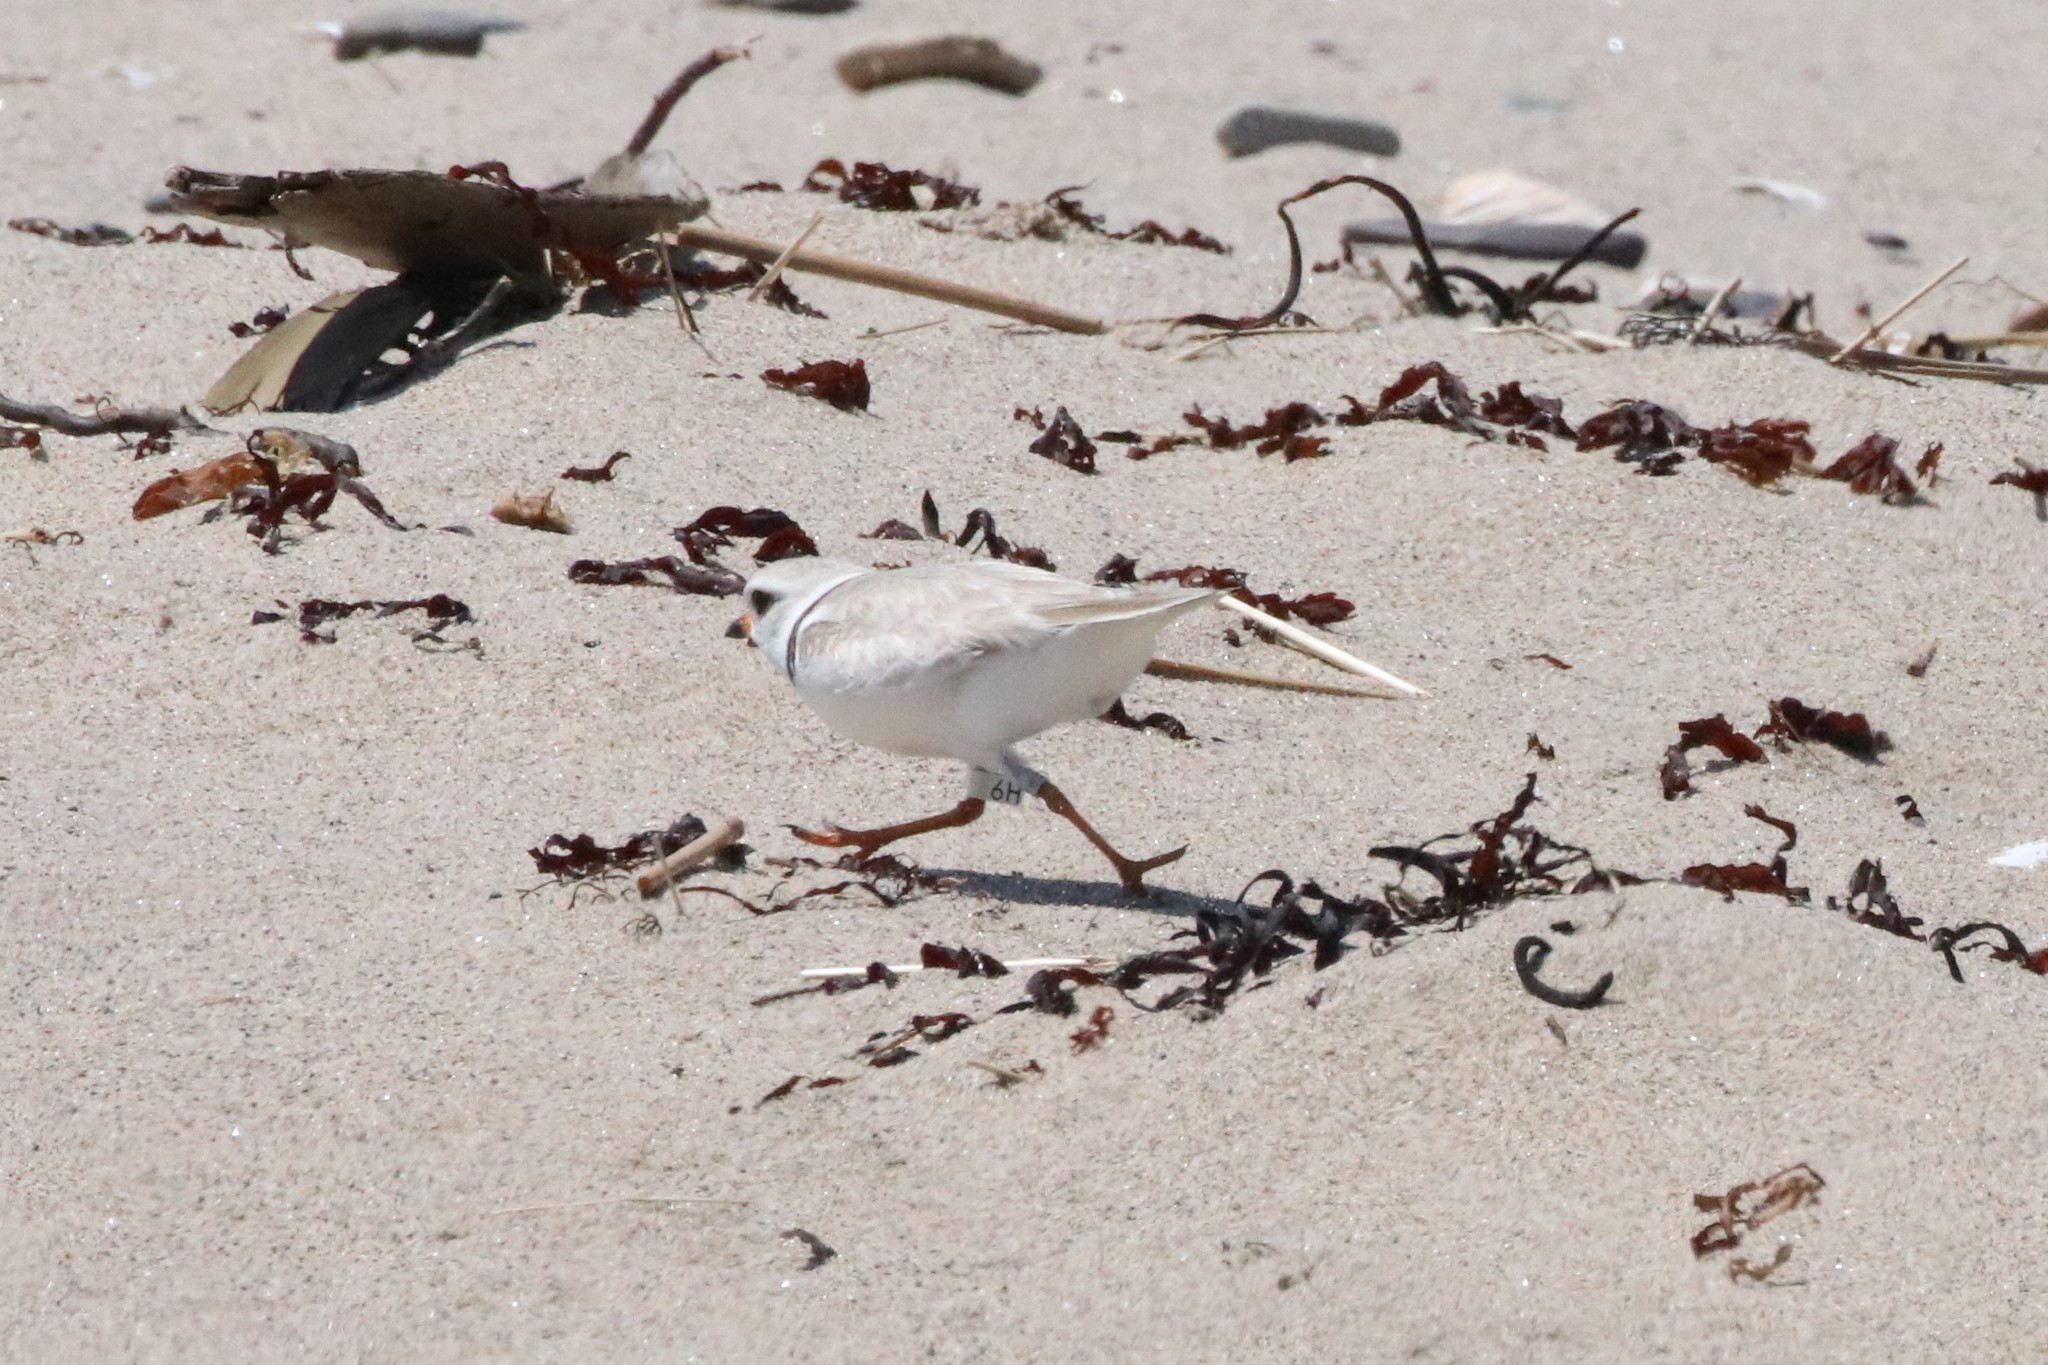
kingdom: Animalia
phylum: Chordata
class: Aves
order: Charadriiformes
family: Charadriidae
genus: Charadrius
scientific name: Charadrius melodus
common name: Piping plover
